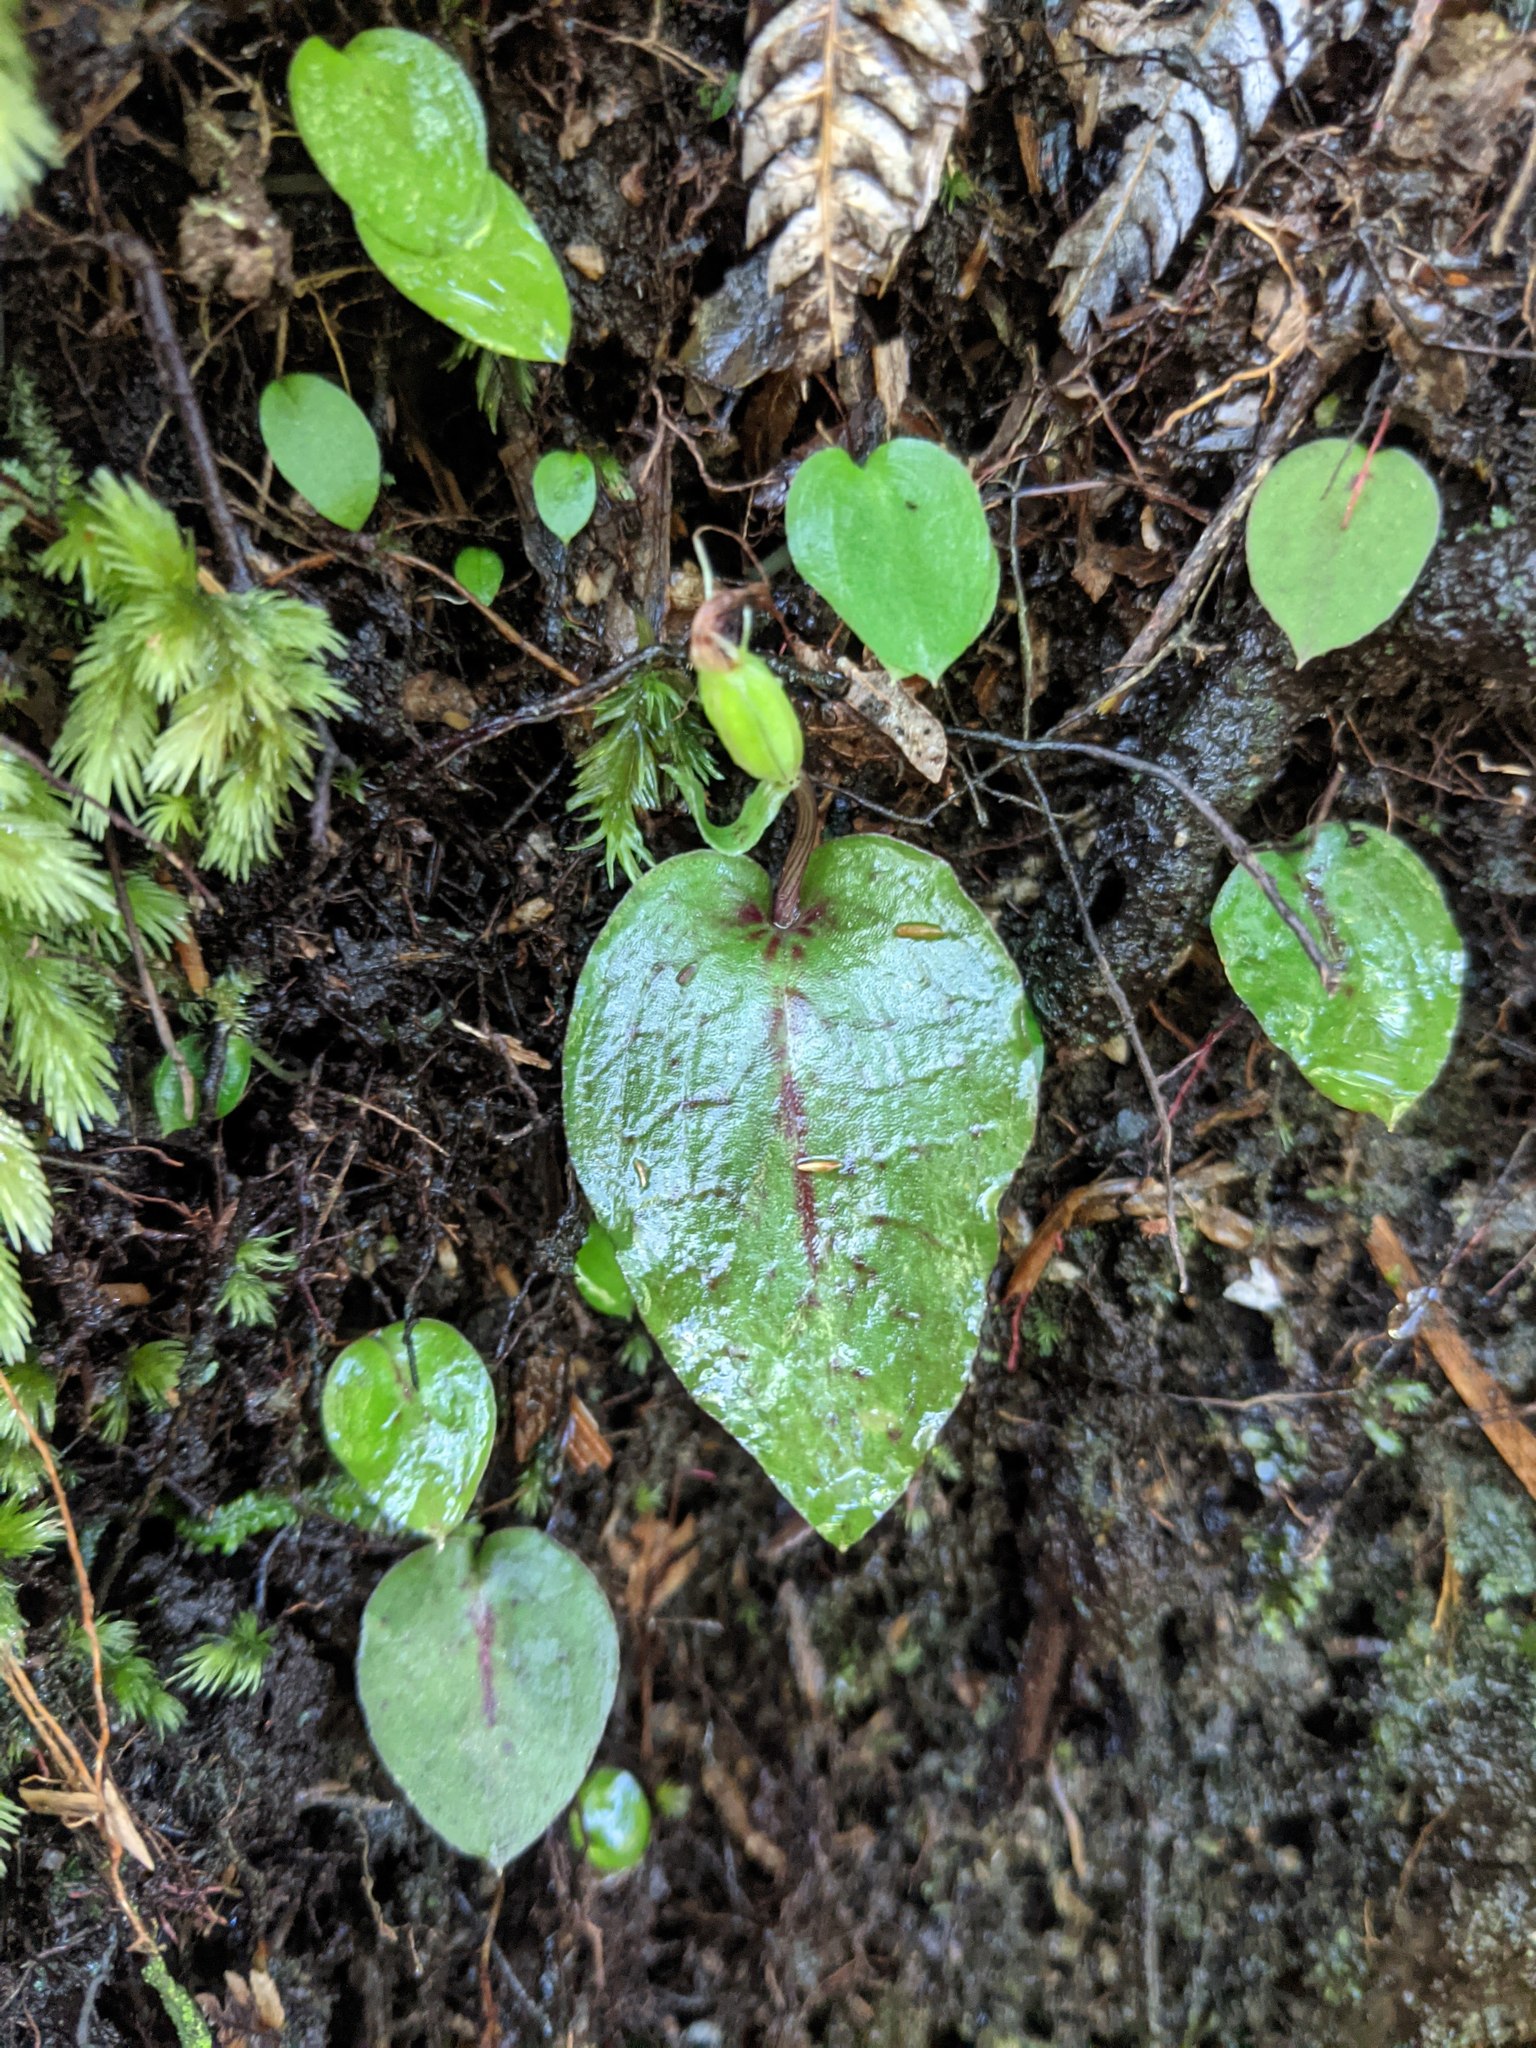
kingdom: Plantae
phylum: Tracheophyta
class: Liliopsida
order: Asparagales
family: Orchidaceae
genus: Corybas
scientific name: Corybas oblongus
